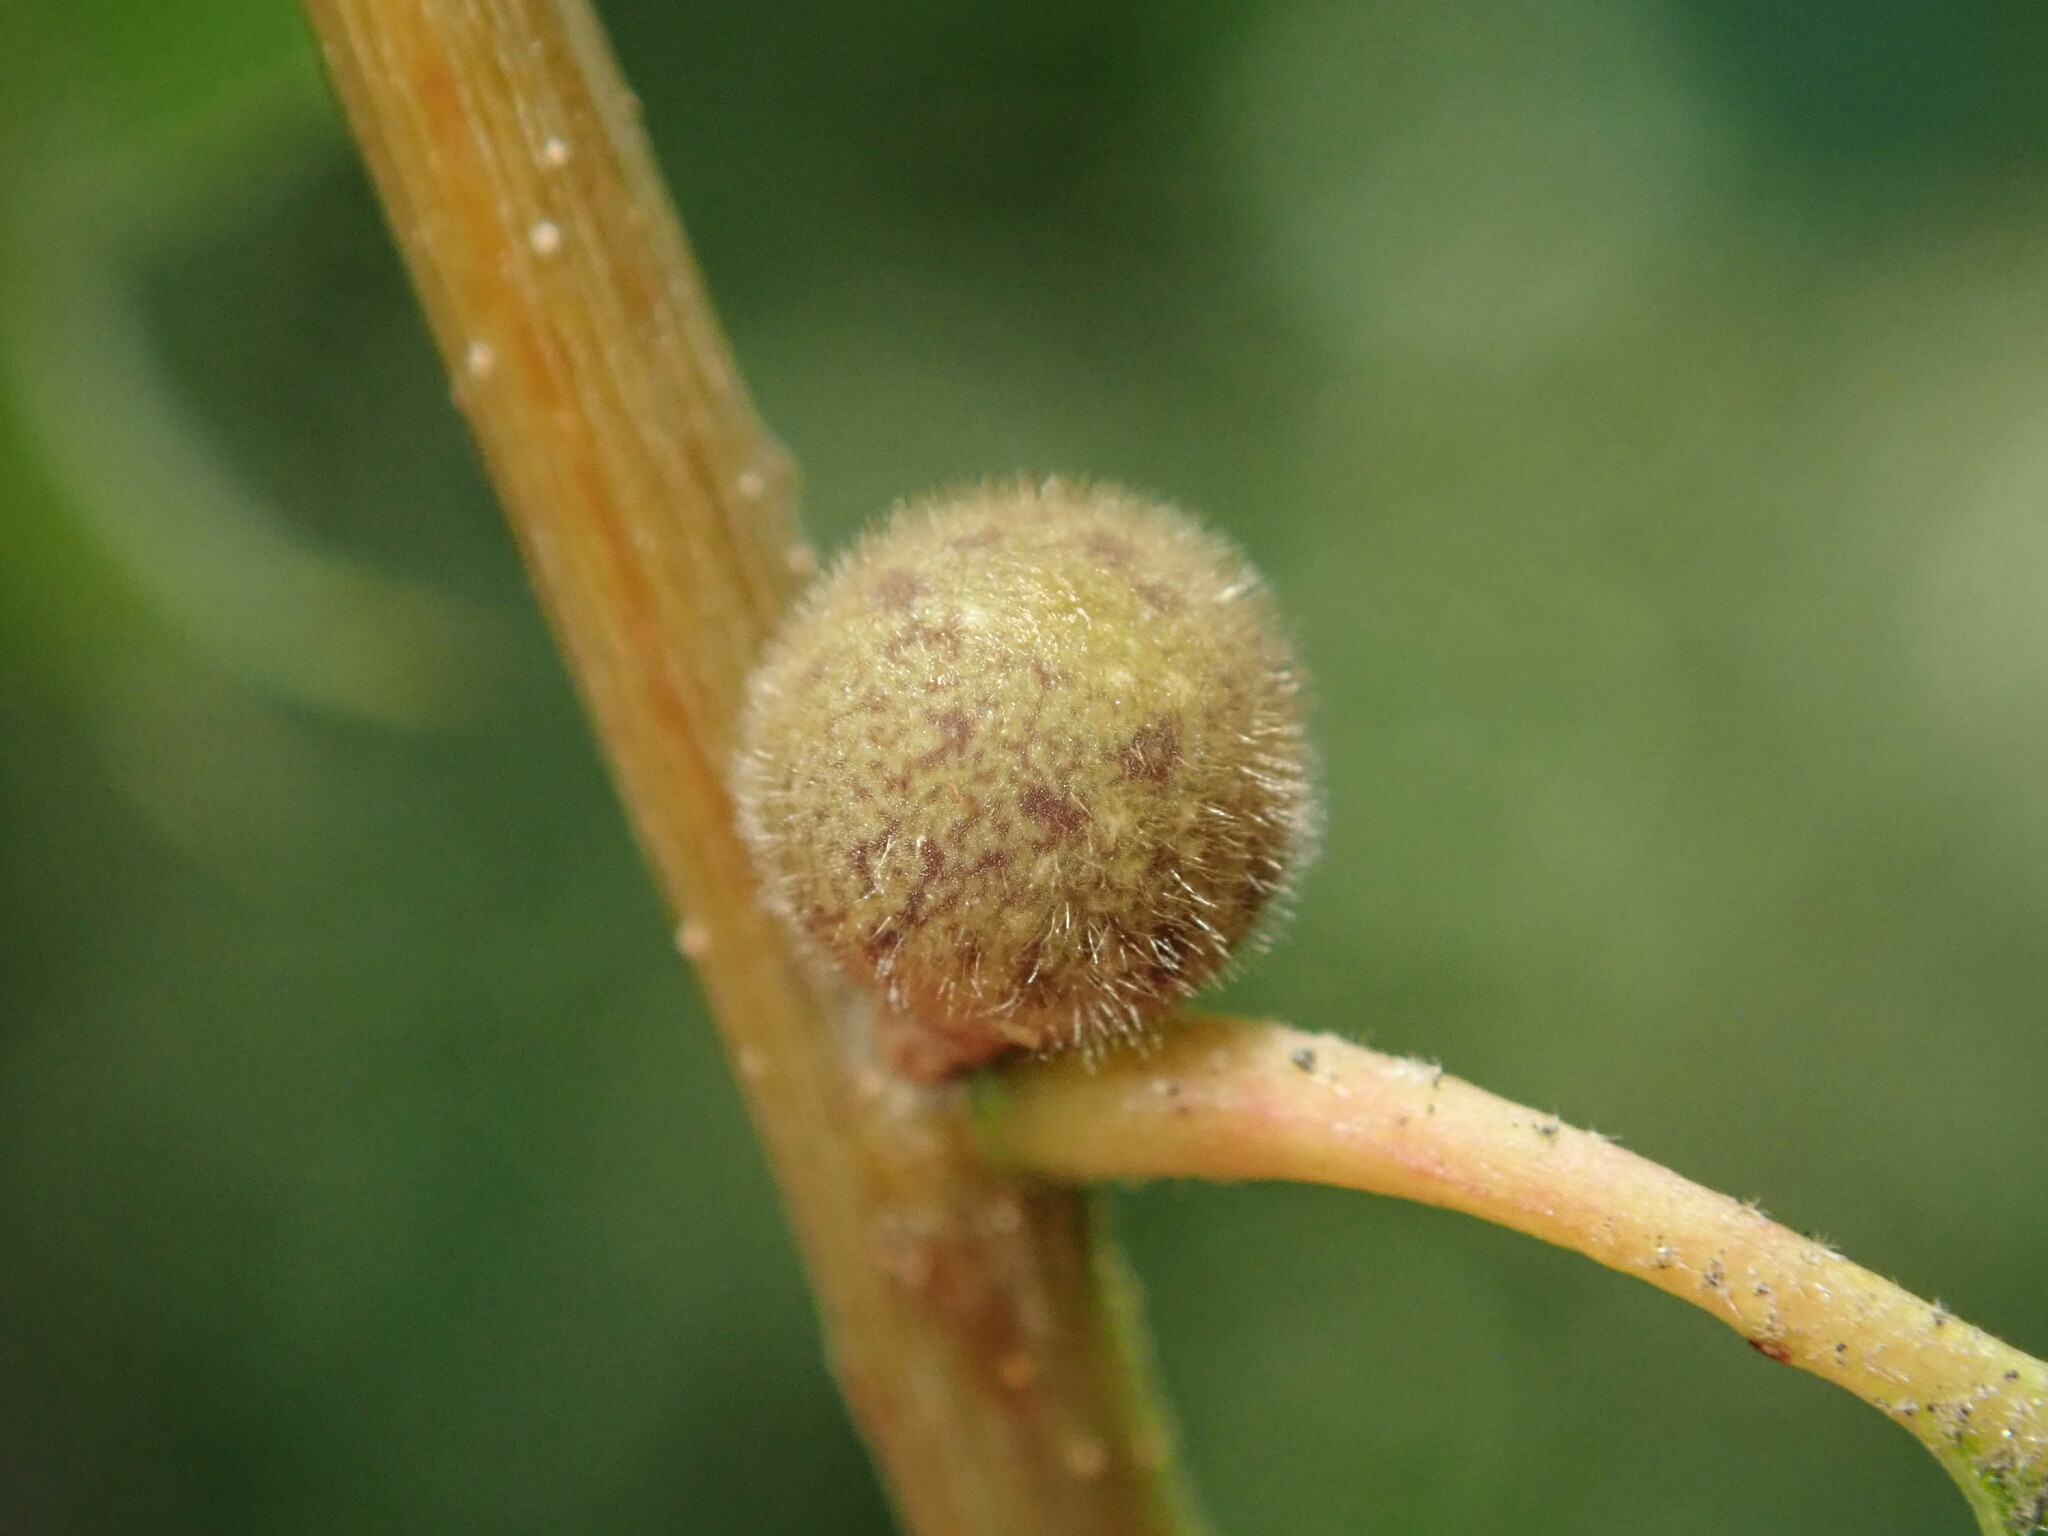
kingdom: Animalia
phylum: Arthropoda
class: Insecta
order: Hymenoptera
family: Cynipidae
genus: Callirhytis
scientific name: Callirhytis
